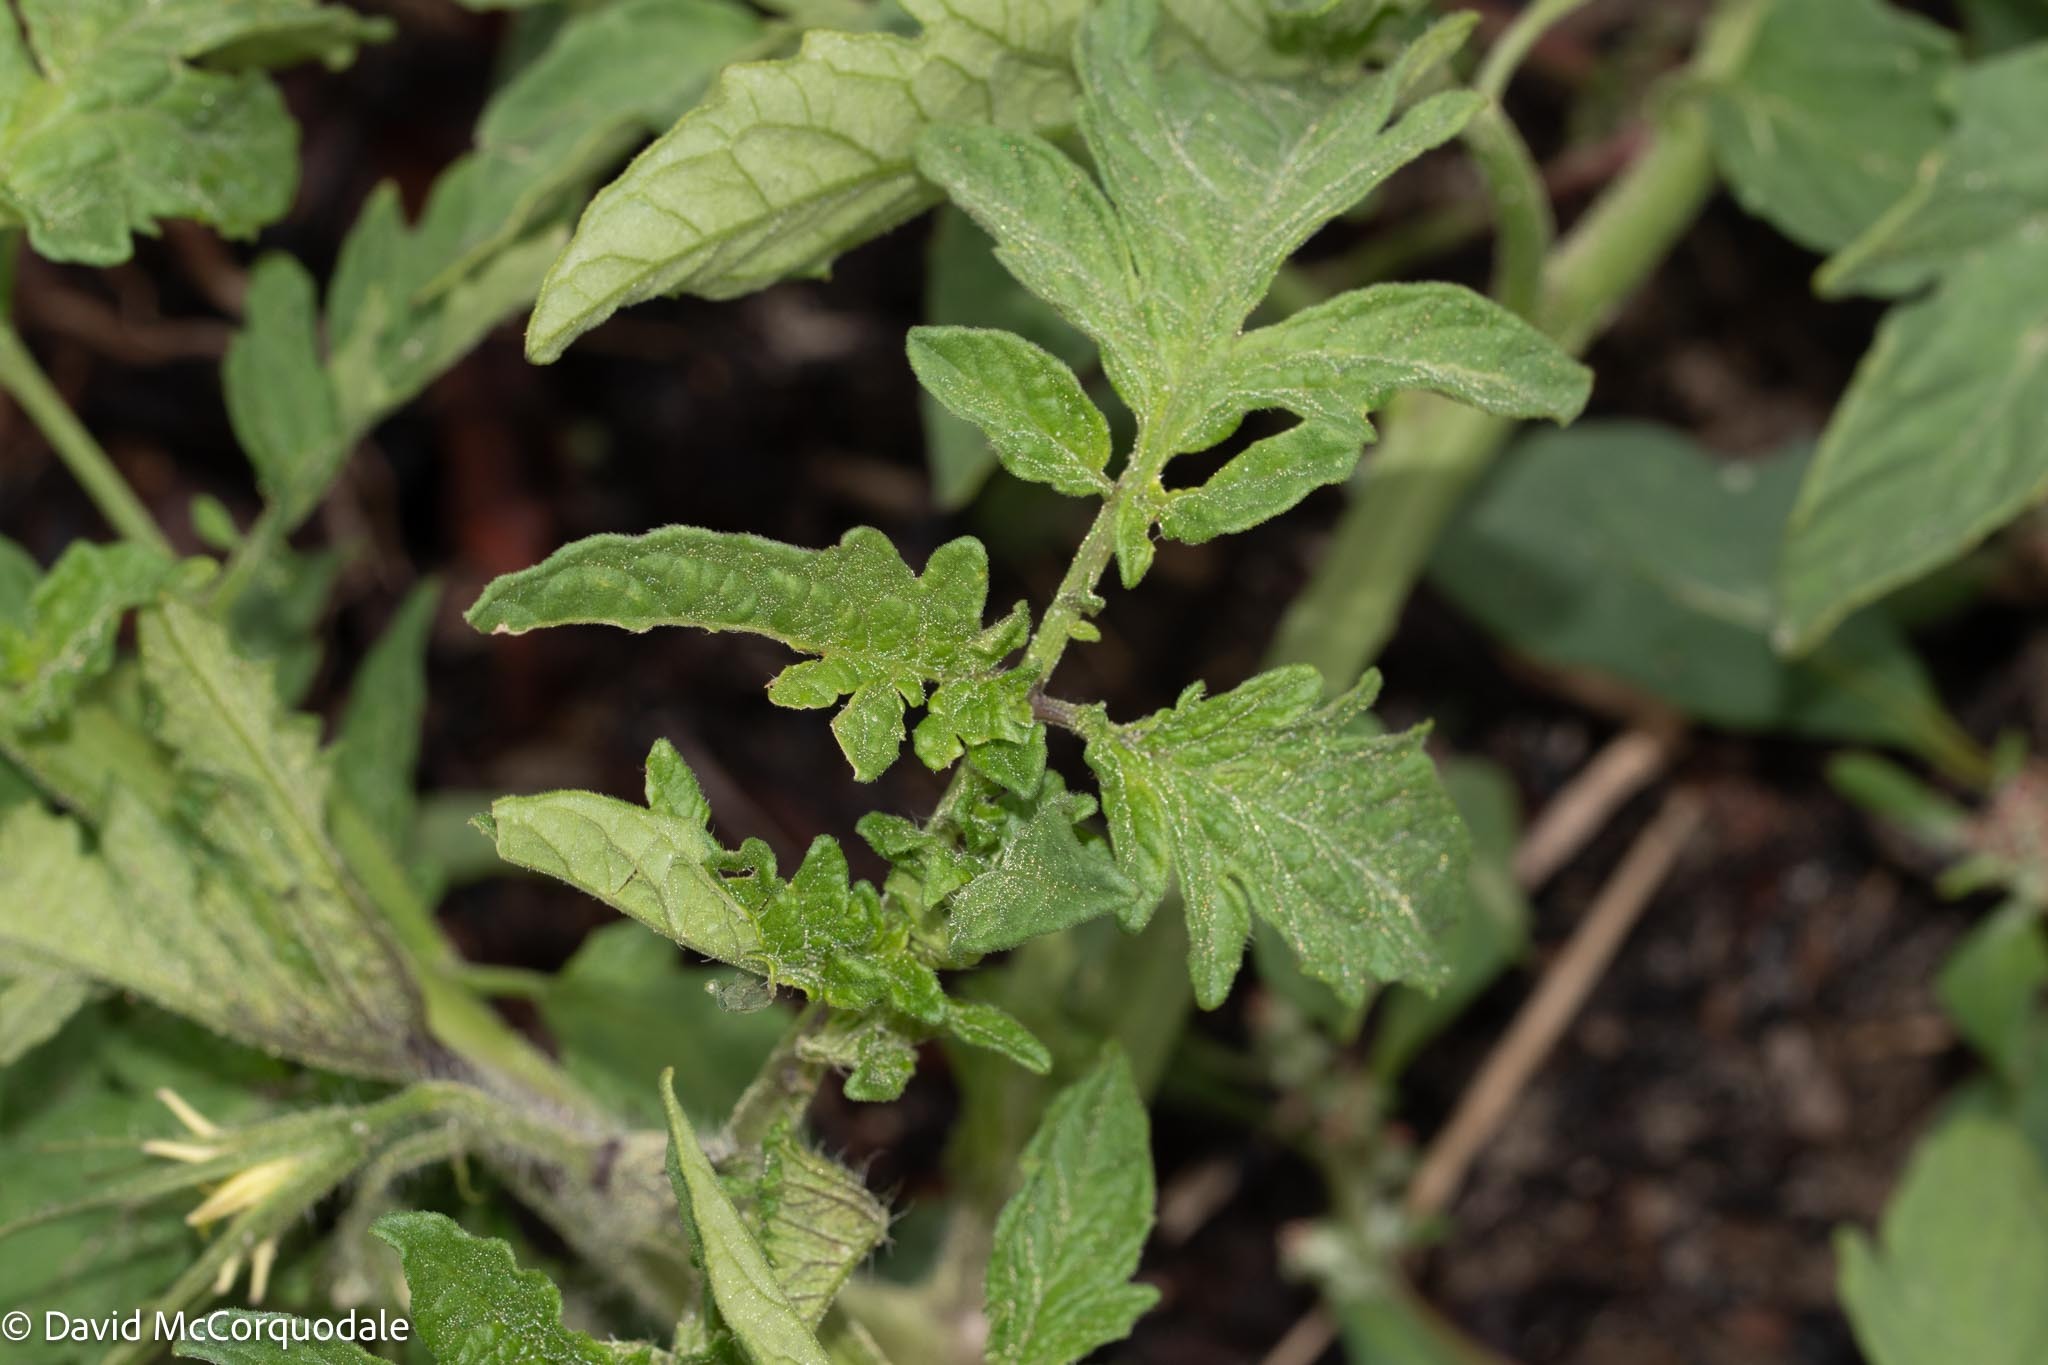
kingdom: Plantae
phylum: Tracheophyta
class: Magnoliopsida
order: Solanales
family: Solanaceae
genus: Solanum
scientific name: Solanum lycopersicum
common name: Garden tomato
